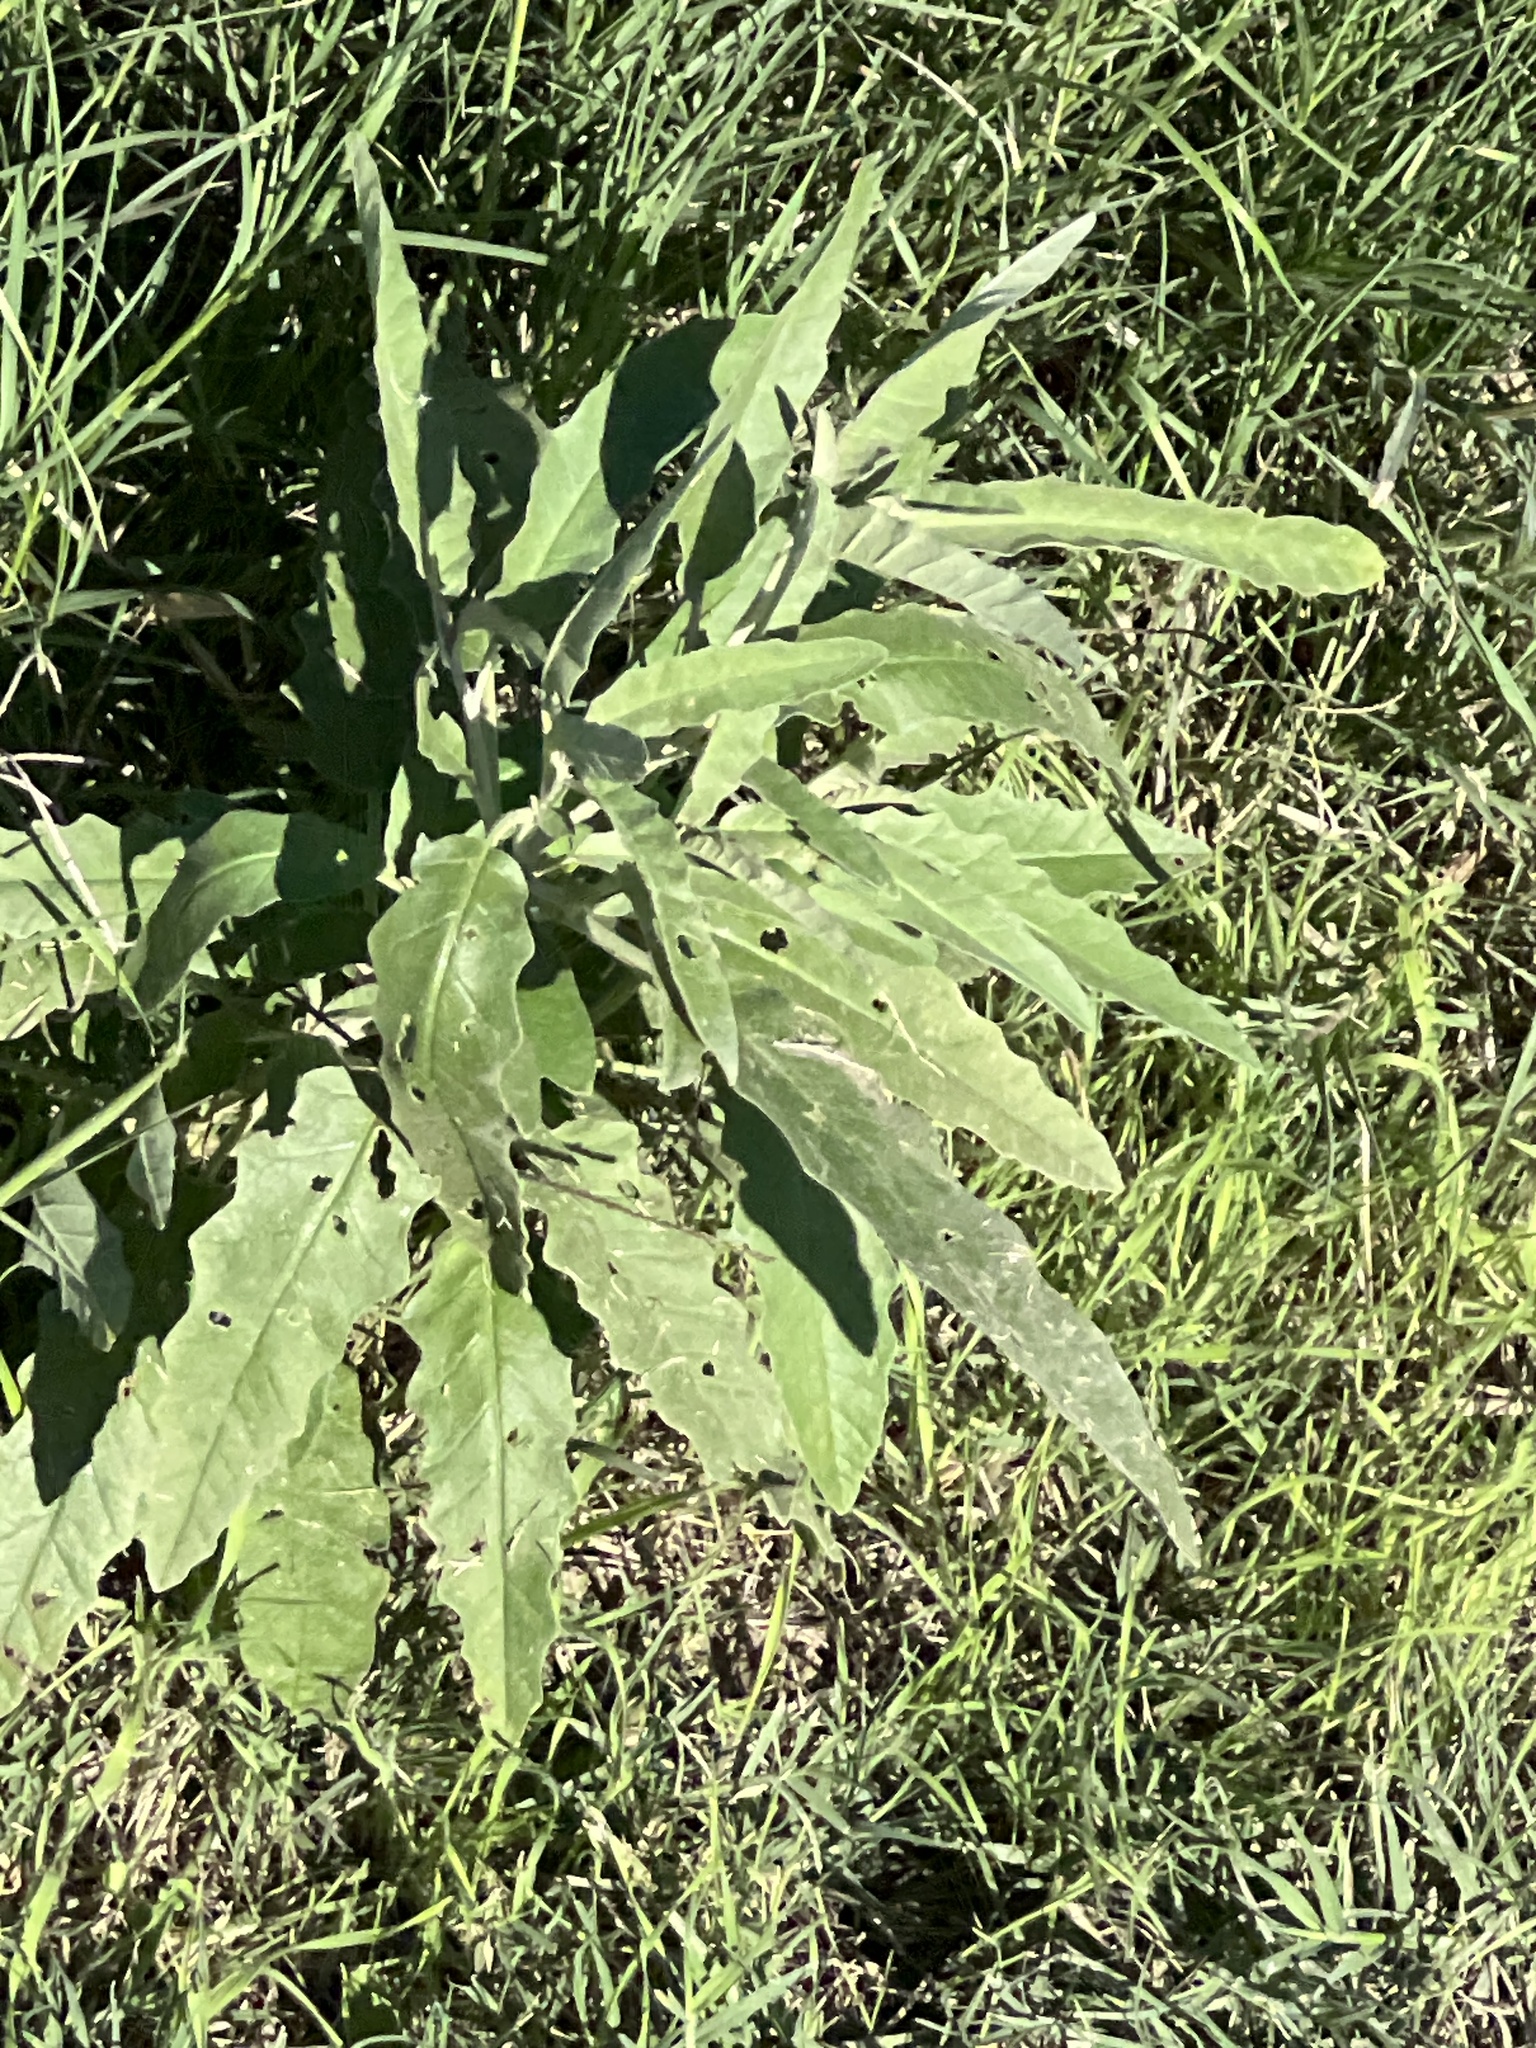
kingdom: Plantae
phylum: Tracheophyta
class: Magnoliopsida
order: Solanales
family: Solanaceae
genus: Solanum
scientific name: Solanum elaeagnifolium
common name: Silverleaf nightshade
